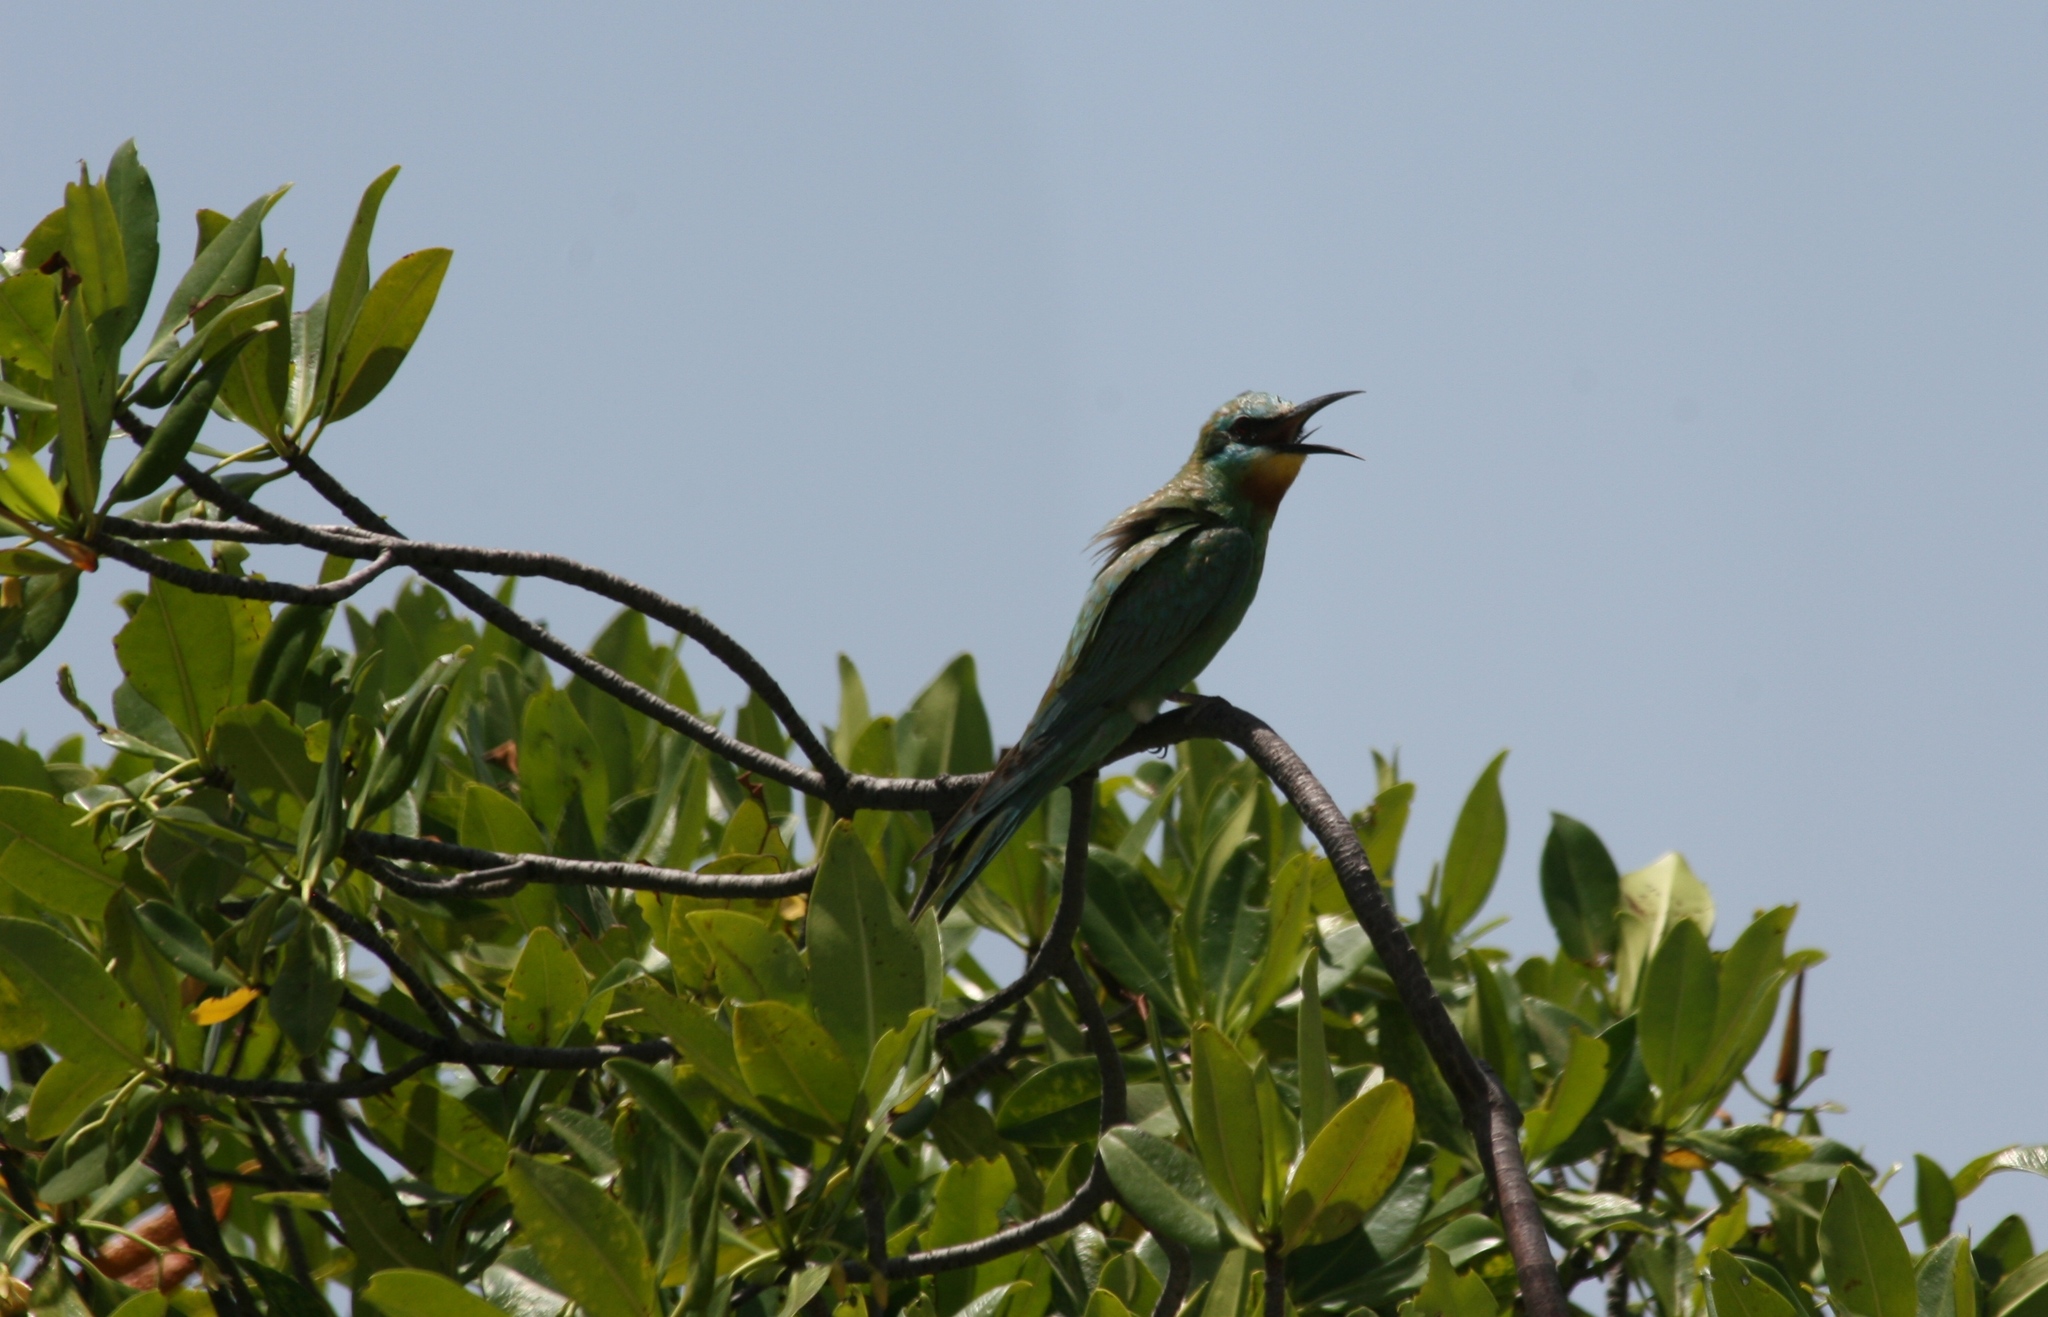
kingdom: Animalia
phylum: Chordata
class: Aves
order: Coraciiformes
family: Meropidae
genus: Merops
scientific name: Merops persicus
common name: Blue-cheeked bee-eater
